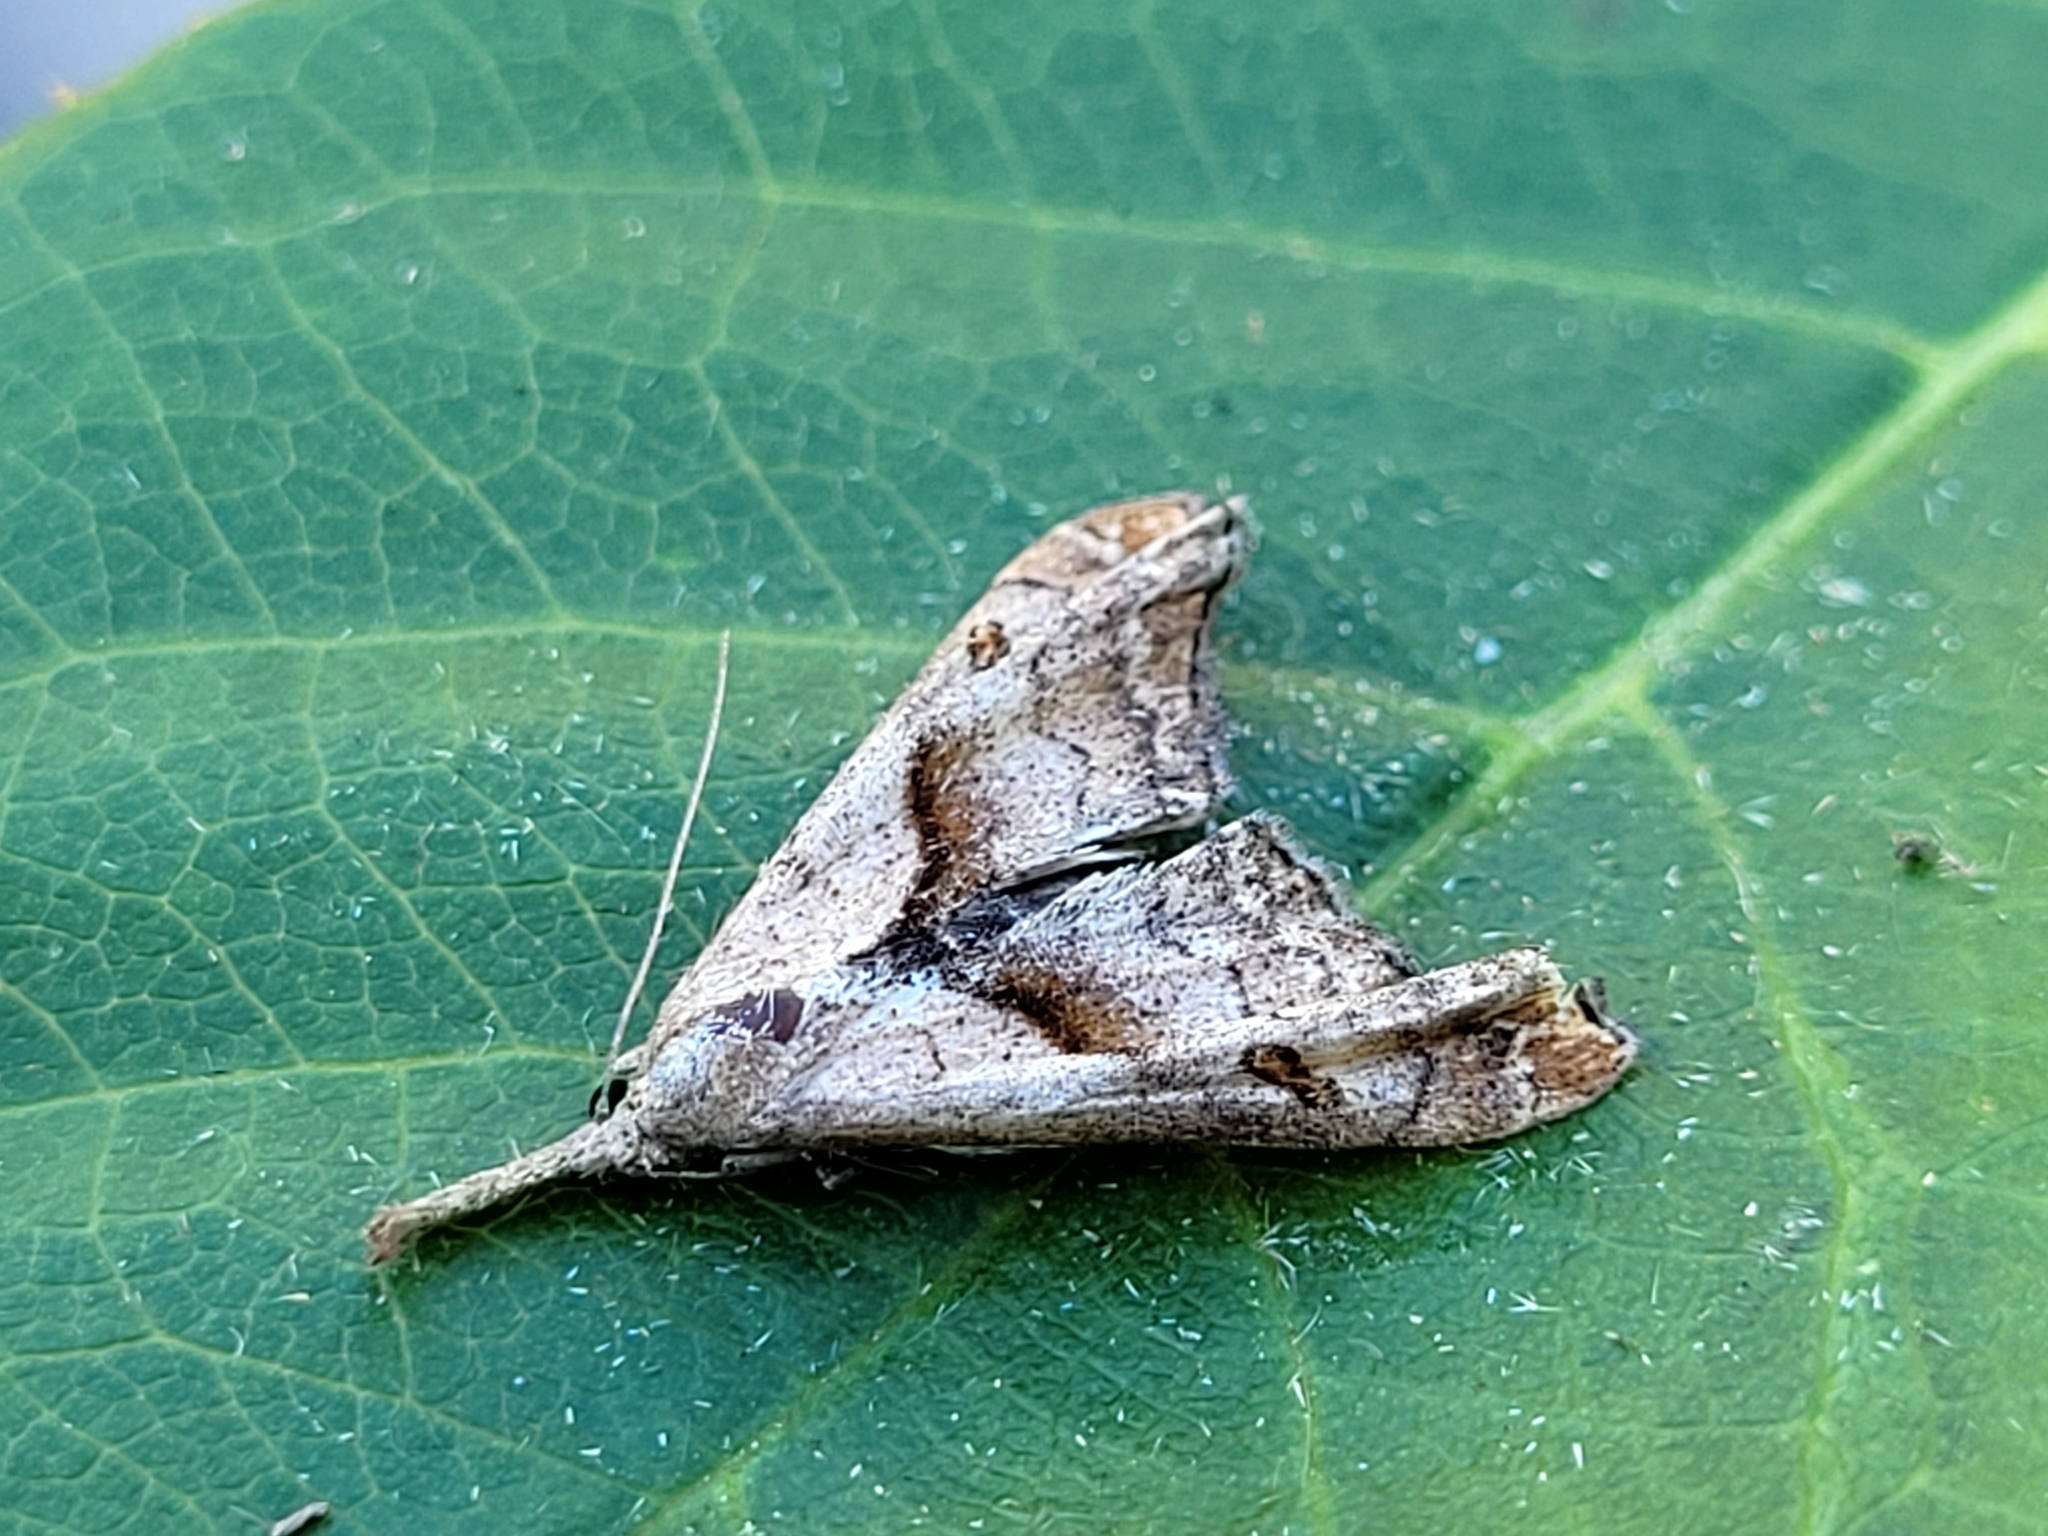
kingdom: Animalia
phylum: Arthropoda
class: Insecta
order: Lepidoptera
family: Erebidae
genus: Palthis
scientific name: Palthis angulalis
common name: Dark-spotted palthis moth
